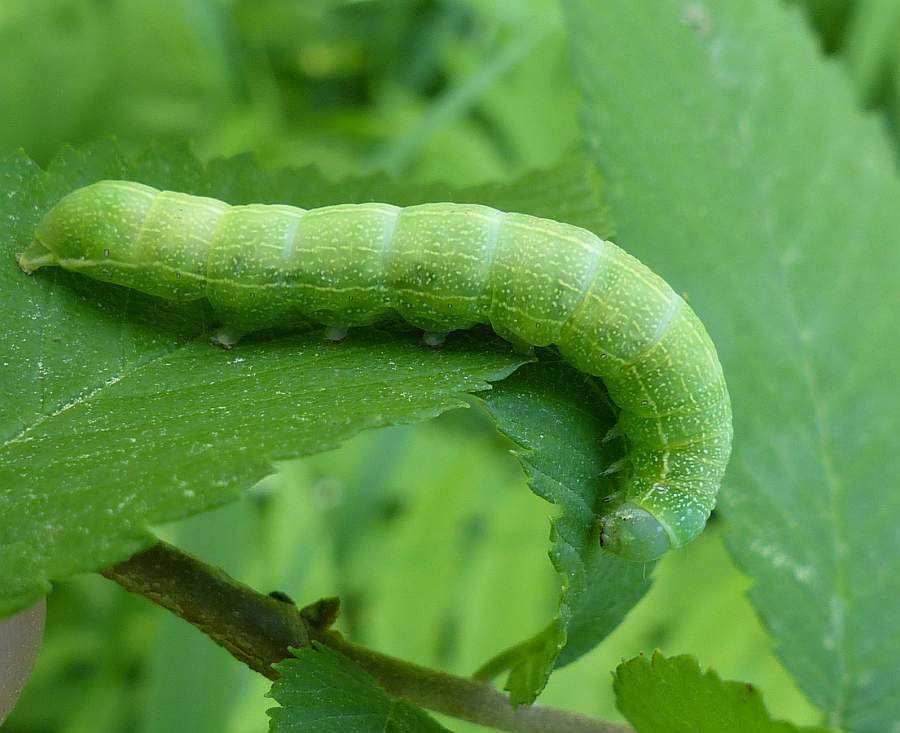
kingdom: Animalia
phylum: Arthropoda
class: Insecta
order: Lepidoptera
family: Noctuidae
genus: Orthosia
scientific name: Orthosia hibisci
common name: Green fruitworm
